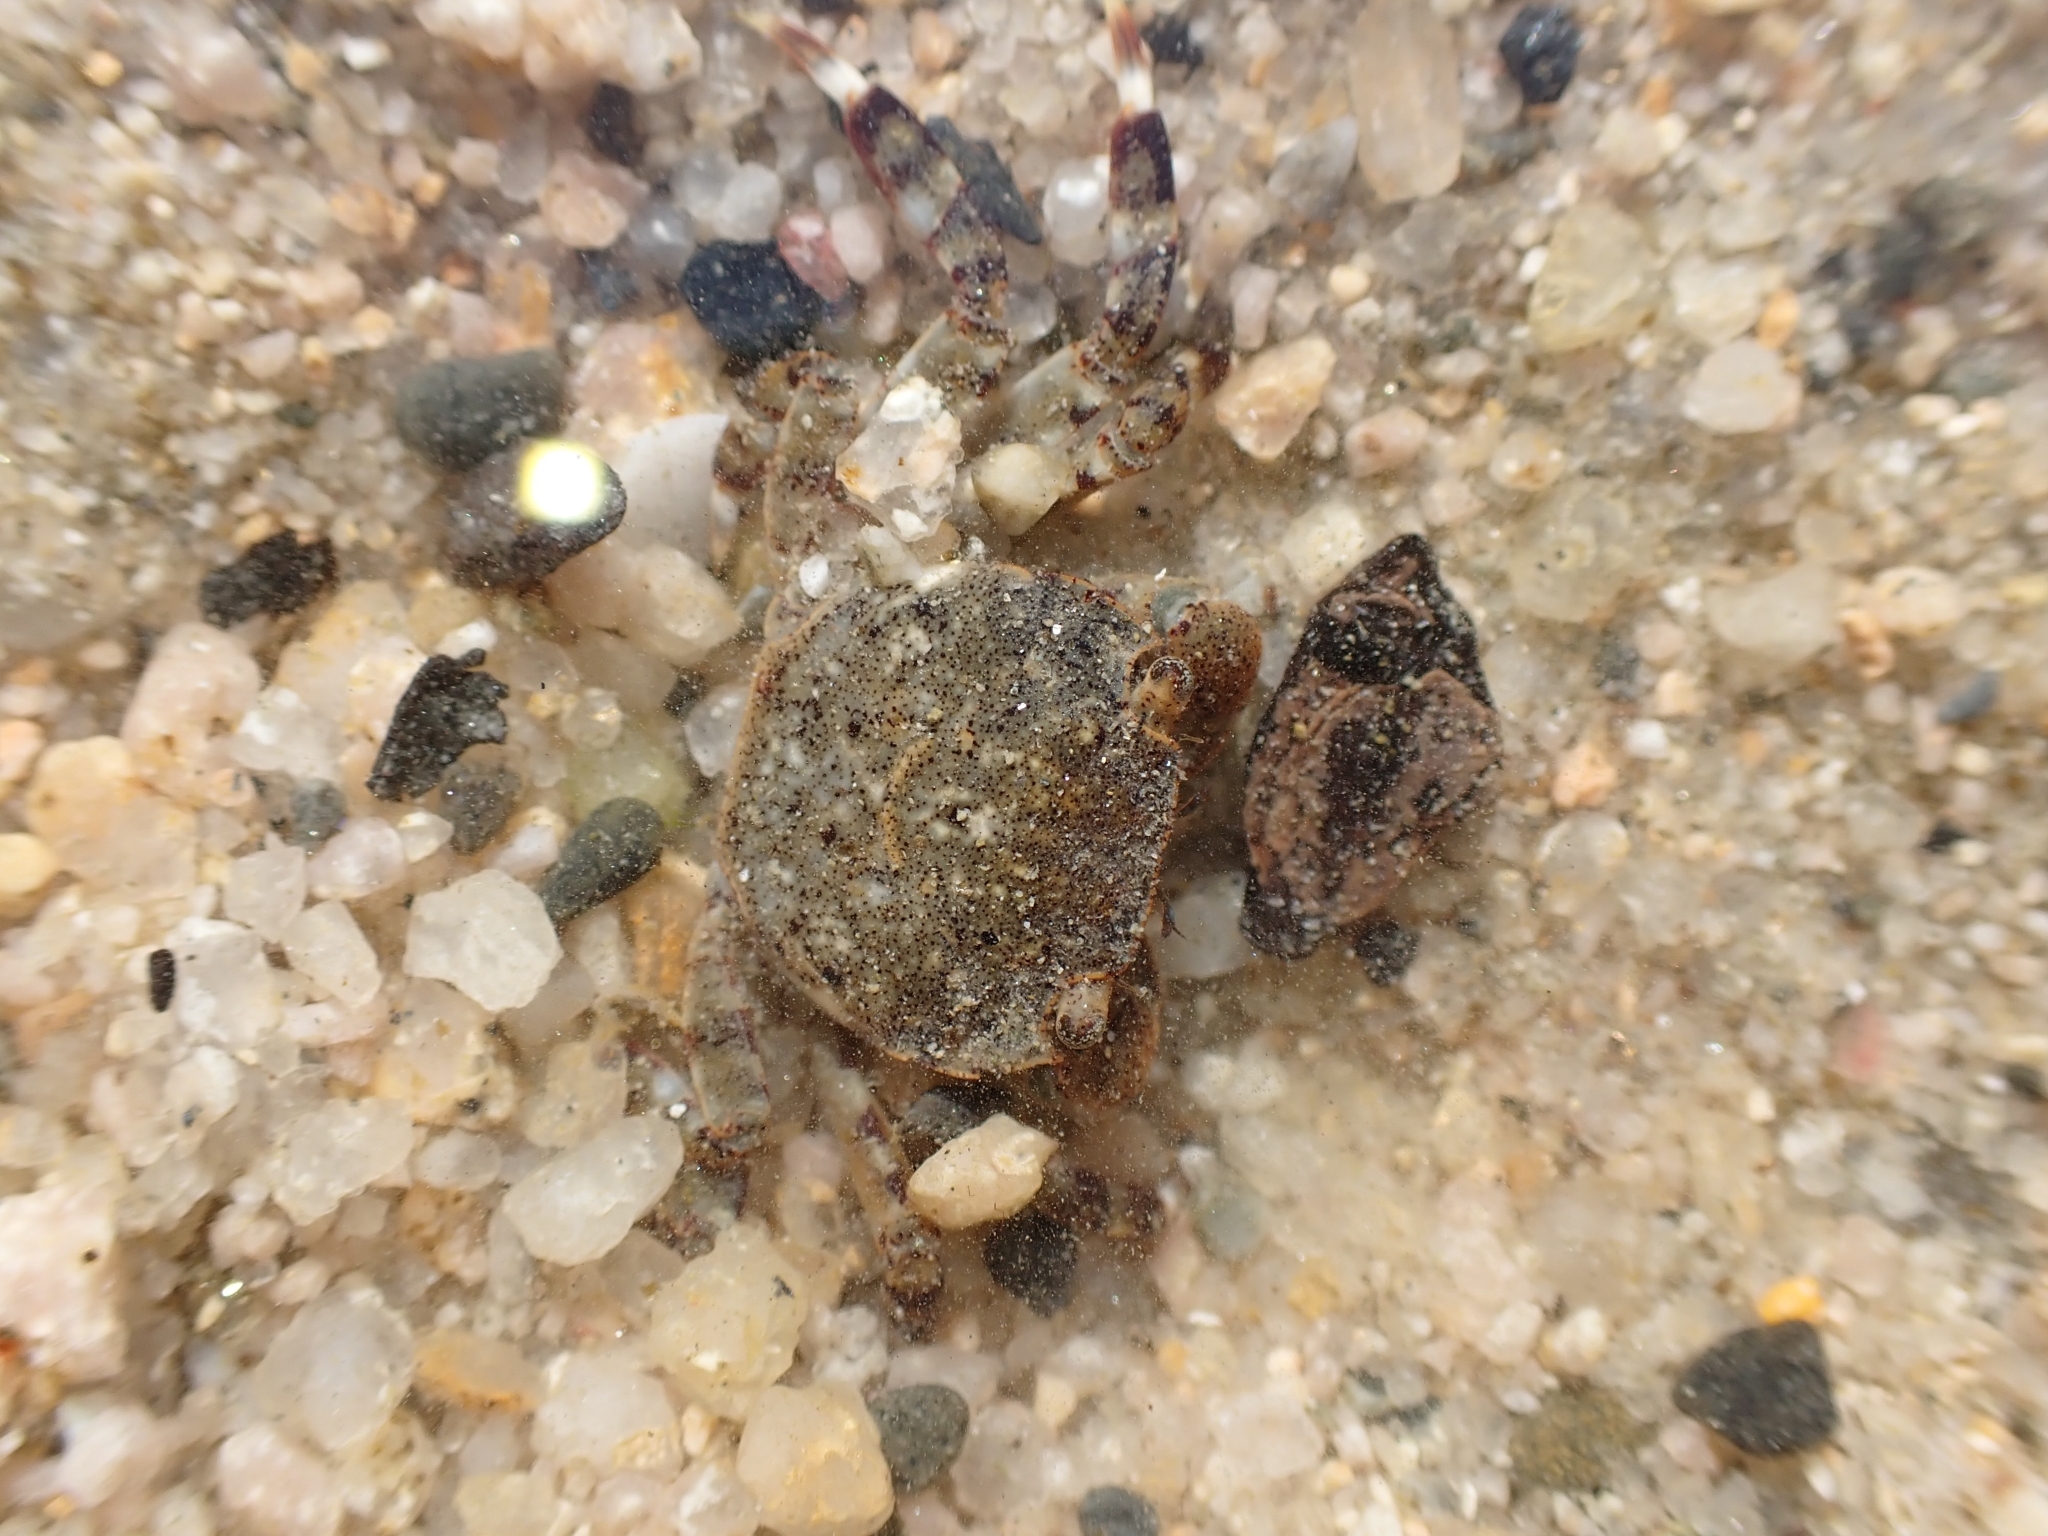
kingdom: Animalia
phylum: Arthropoda
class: Malacostraca
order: Decapoda
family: Varunidae
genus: Hemigrapsus
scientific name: Hemigrapsus sexdentatus
